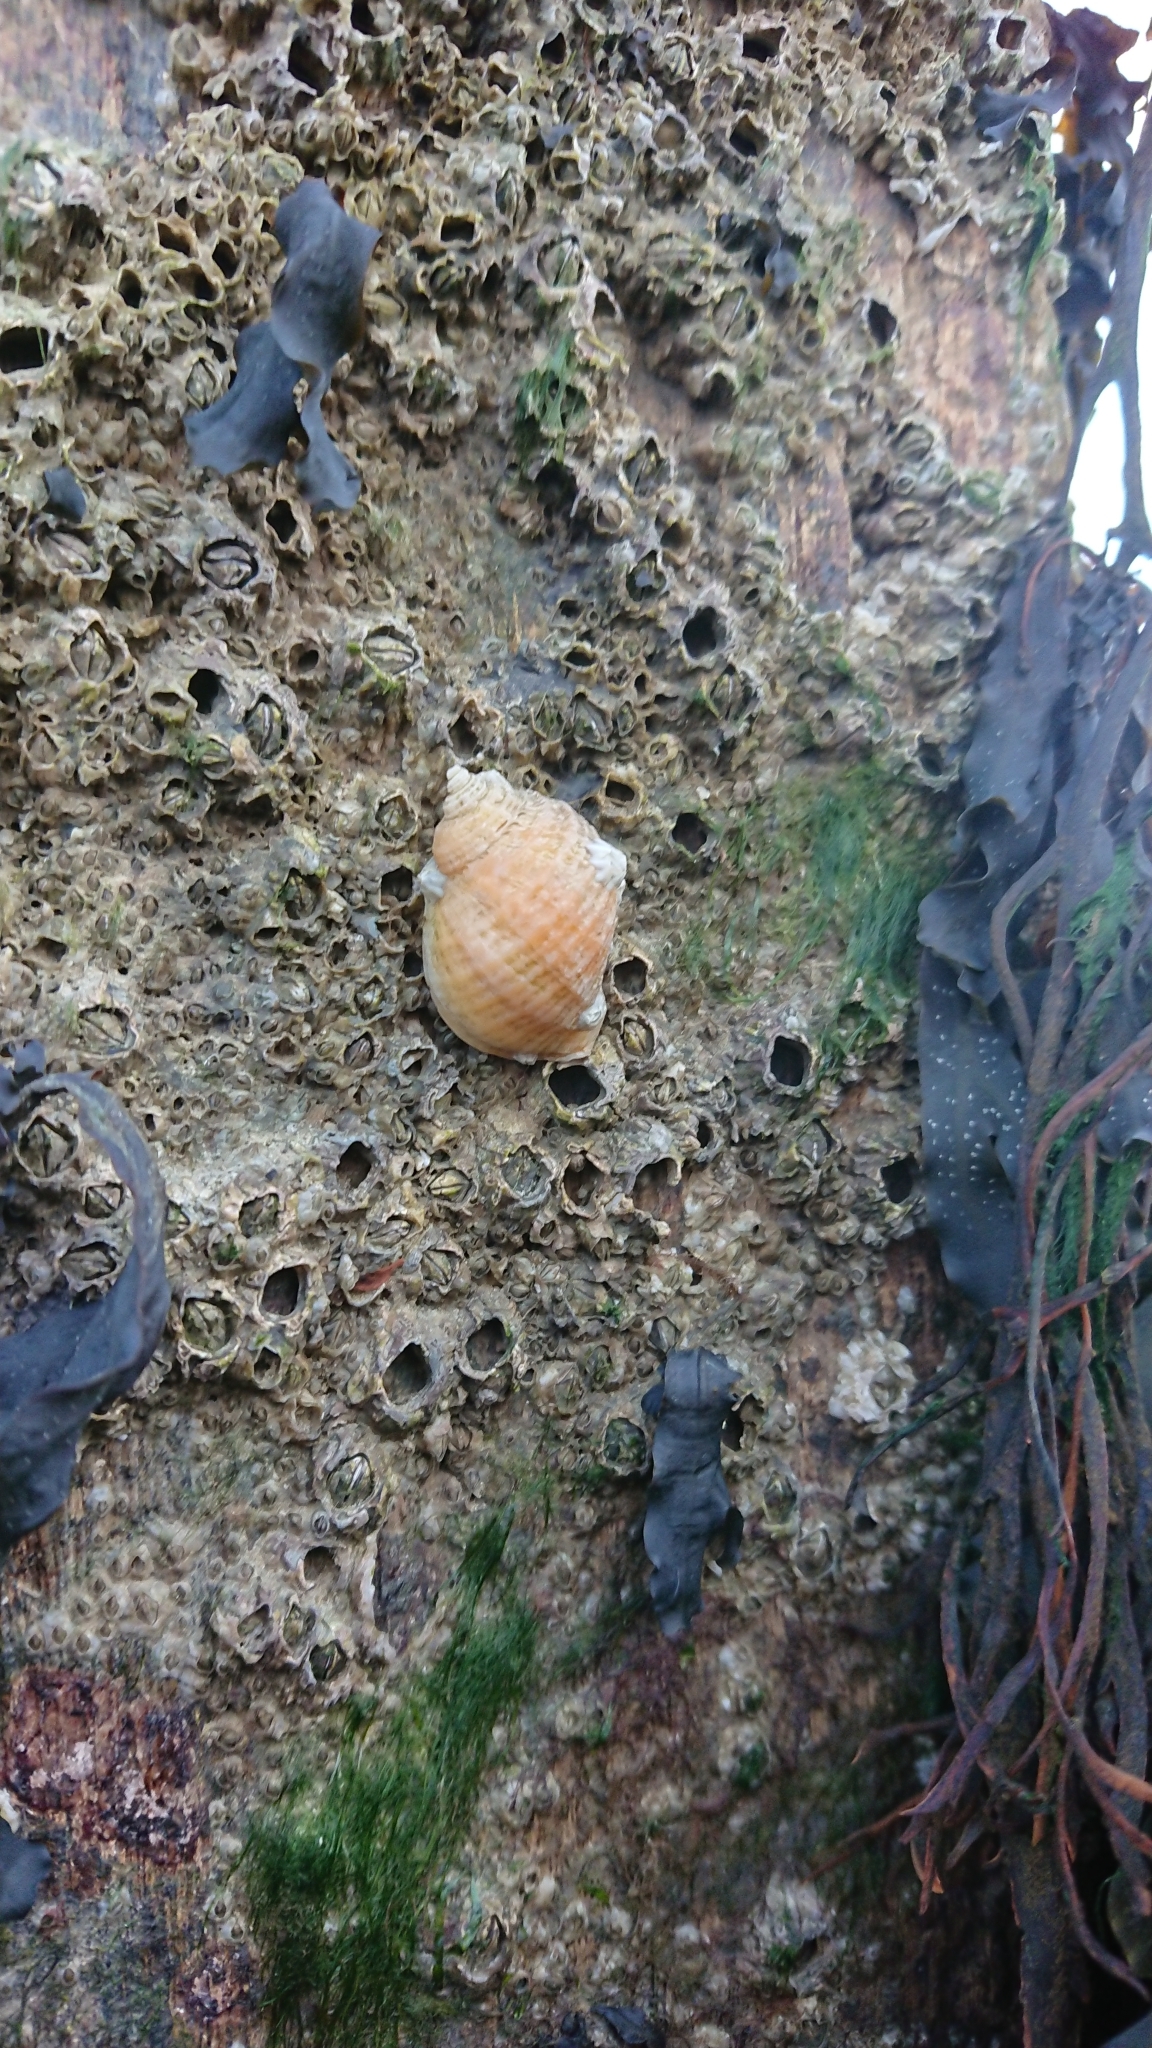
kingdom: Animalia
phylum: Mollusca
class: Gastropoda
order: Neogastropoda
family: Muricidae
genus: Nucella
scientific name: Nucella lapillus
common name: Dog whelk
